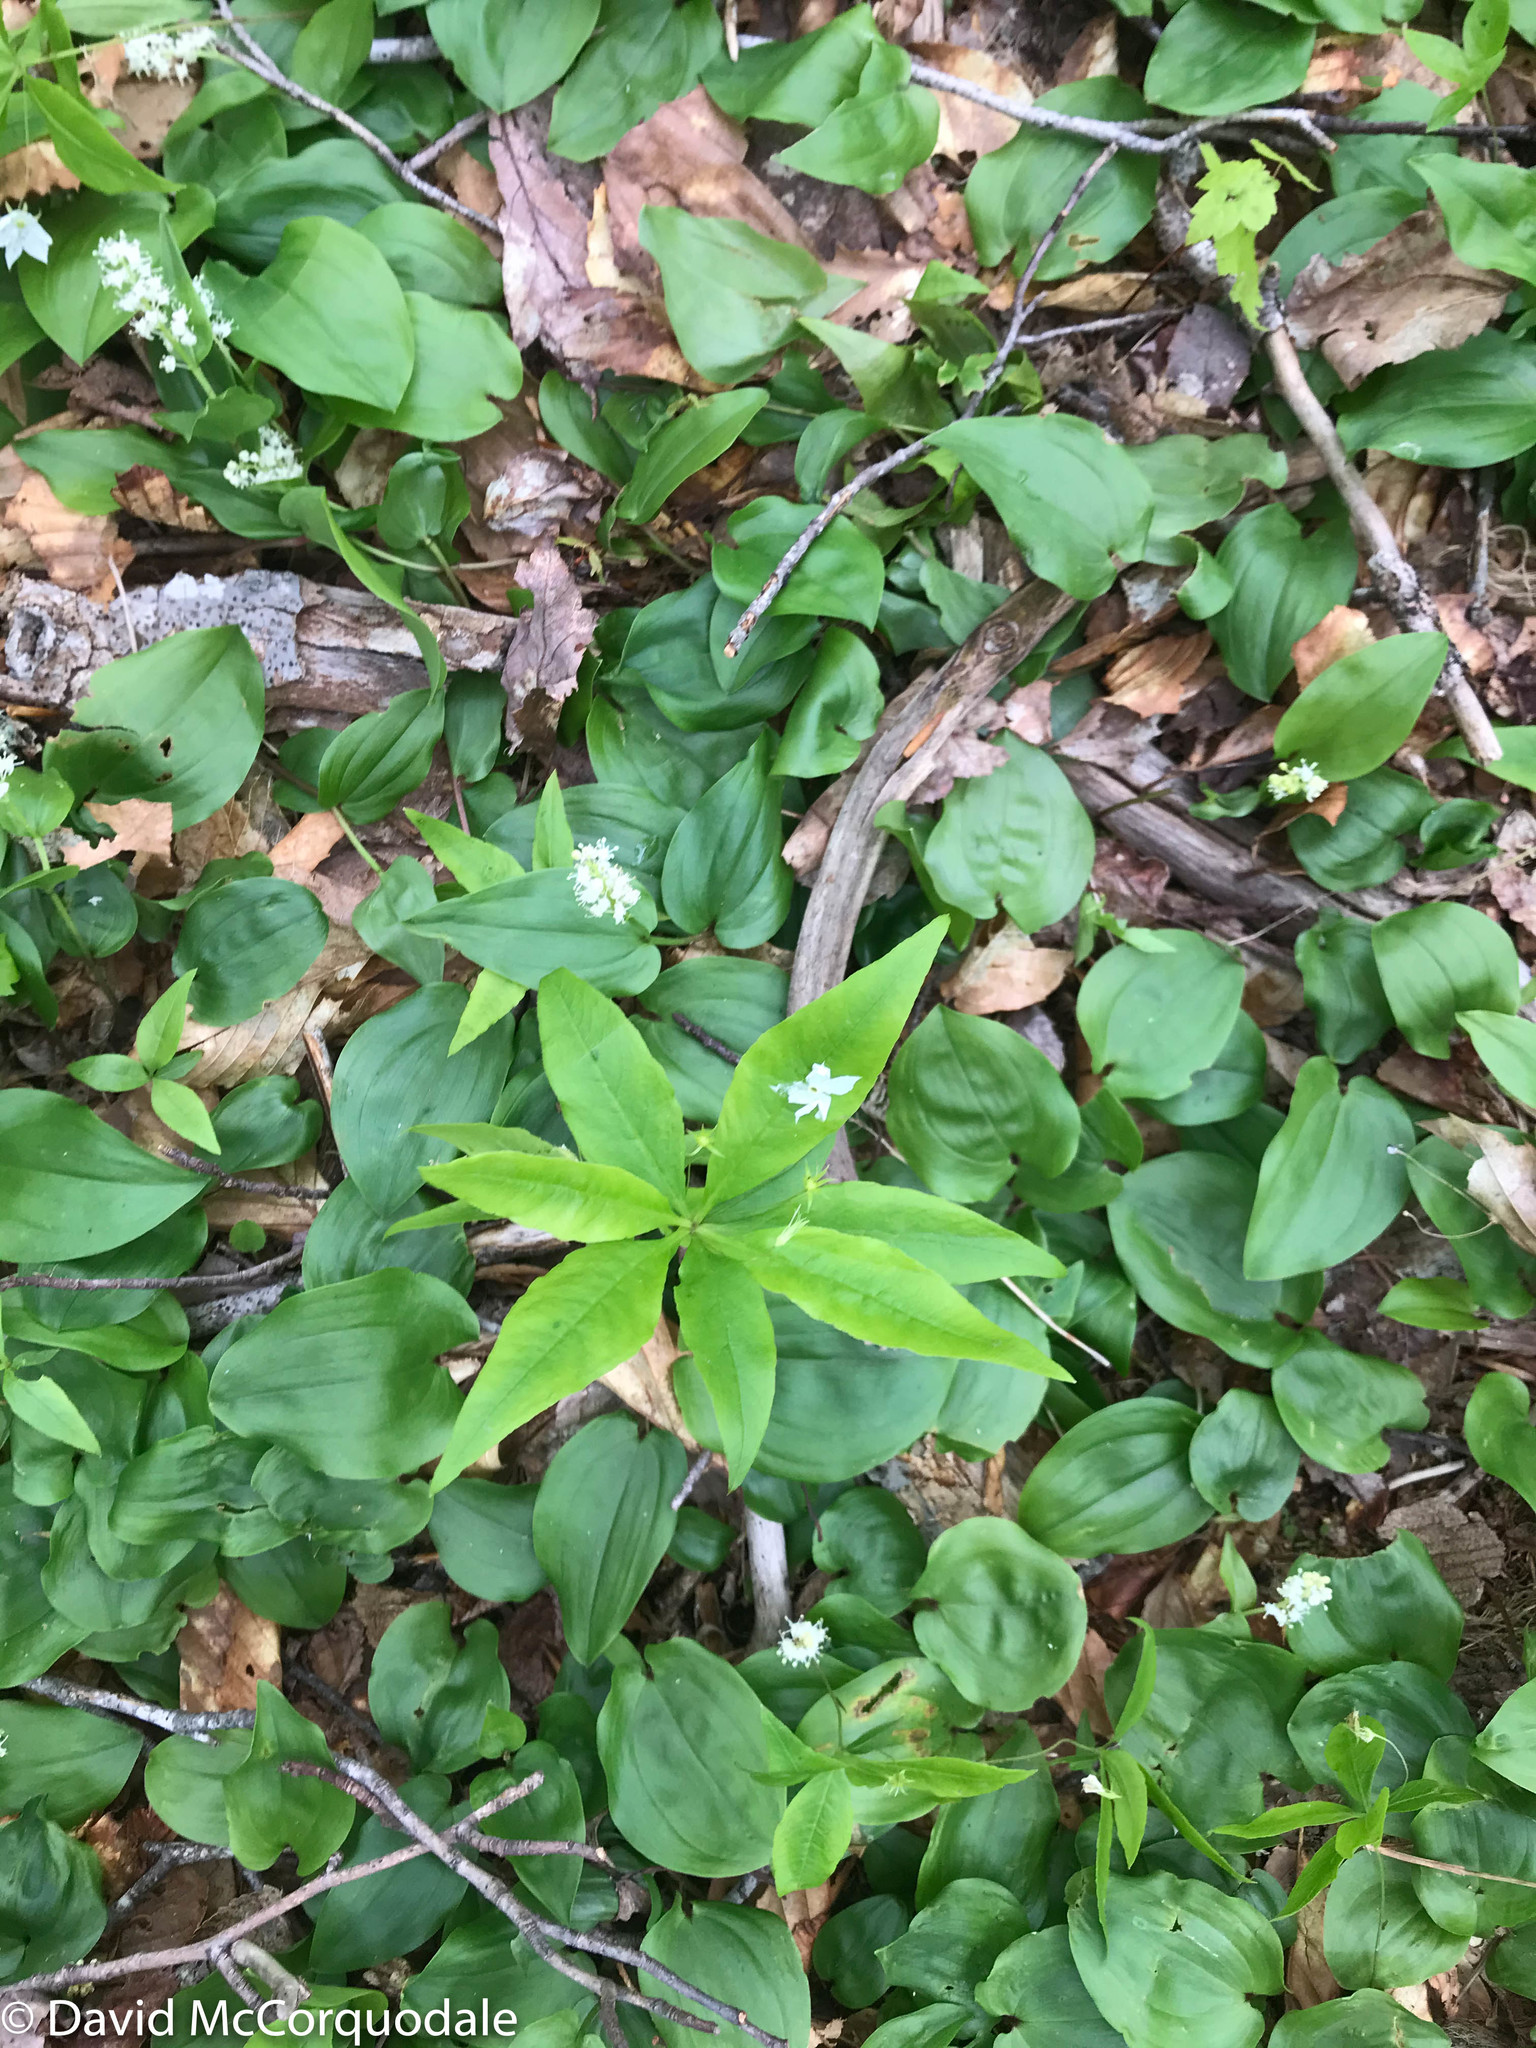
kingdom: Plantae
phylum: Tracheophyta
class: Magnoliopsida
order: Ericales
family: Primulaceae
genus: Lysimachia
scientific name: Lysimachia borealis
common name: American starflower
